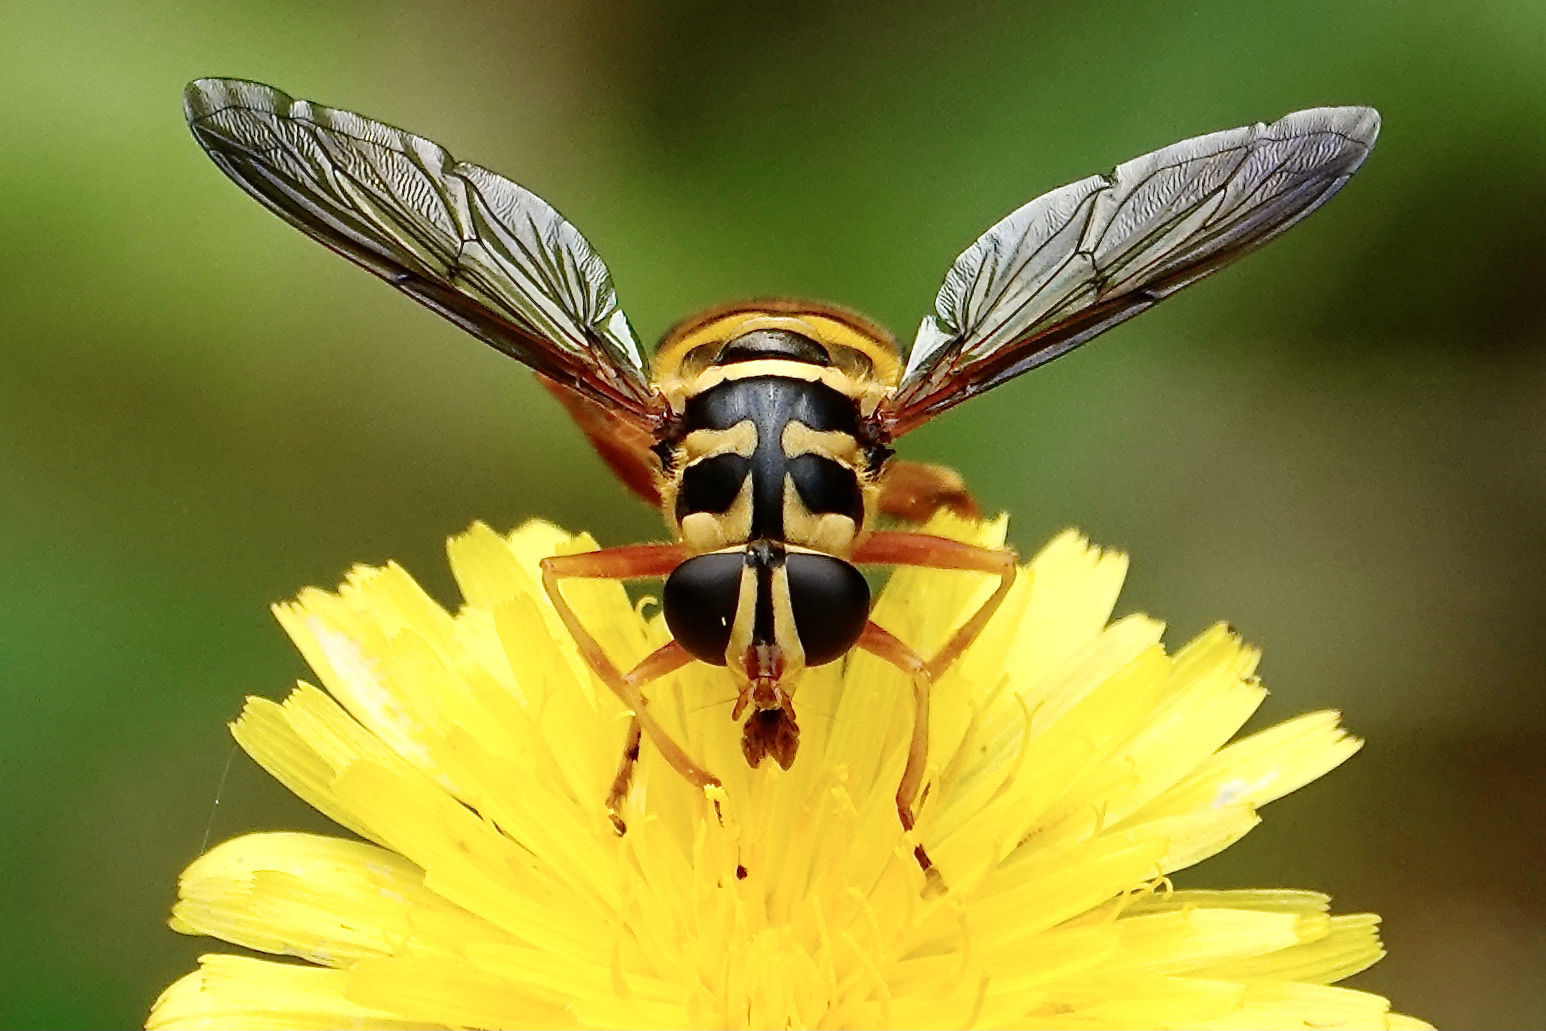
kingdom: Animalia
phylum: Arthropoda
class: Insecta
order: Diptera
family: Syrphidae
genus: Milesia
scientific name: Milesia virginiensis
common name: Virginia giant
